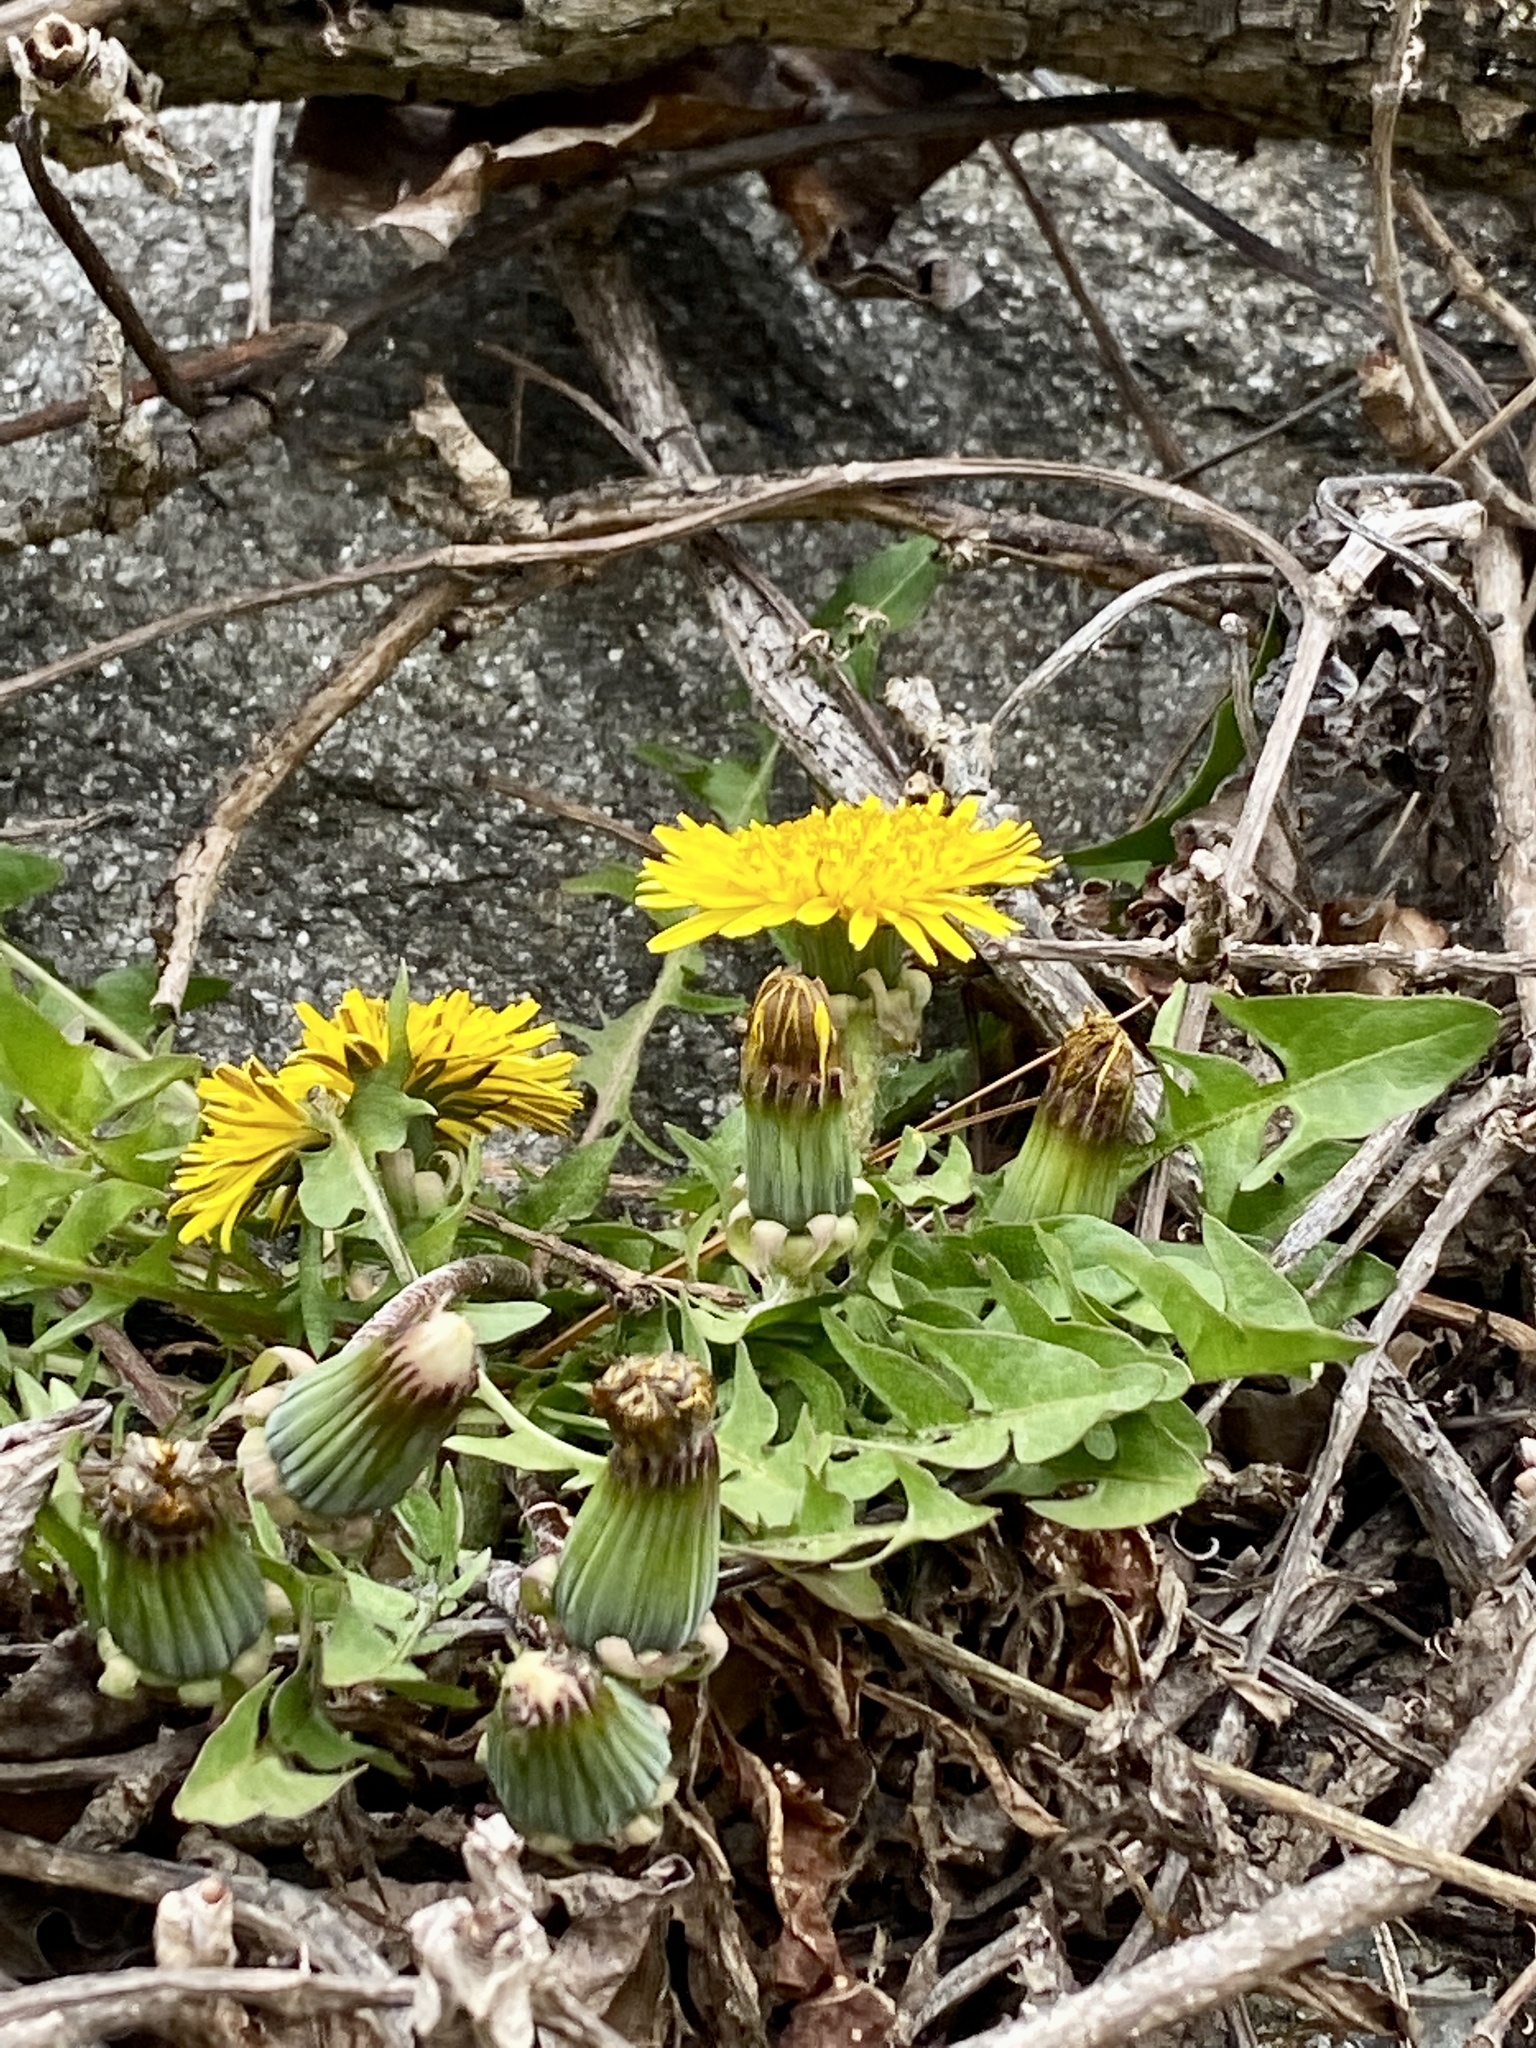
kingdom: Plantae
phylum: Tracheophyta
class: Magnoliopsida
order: Asterales
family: Asteraceae
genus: Taraxacum
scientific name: Taraxacum
